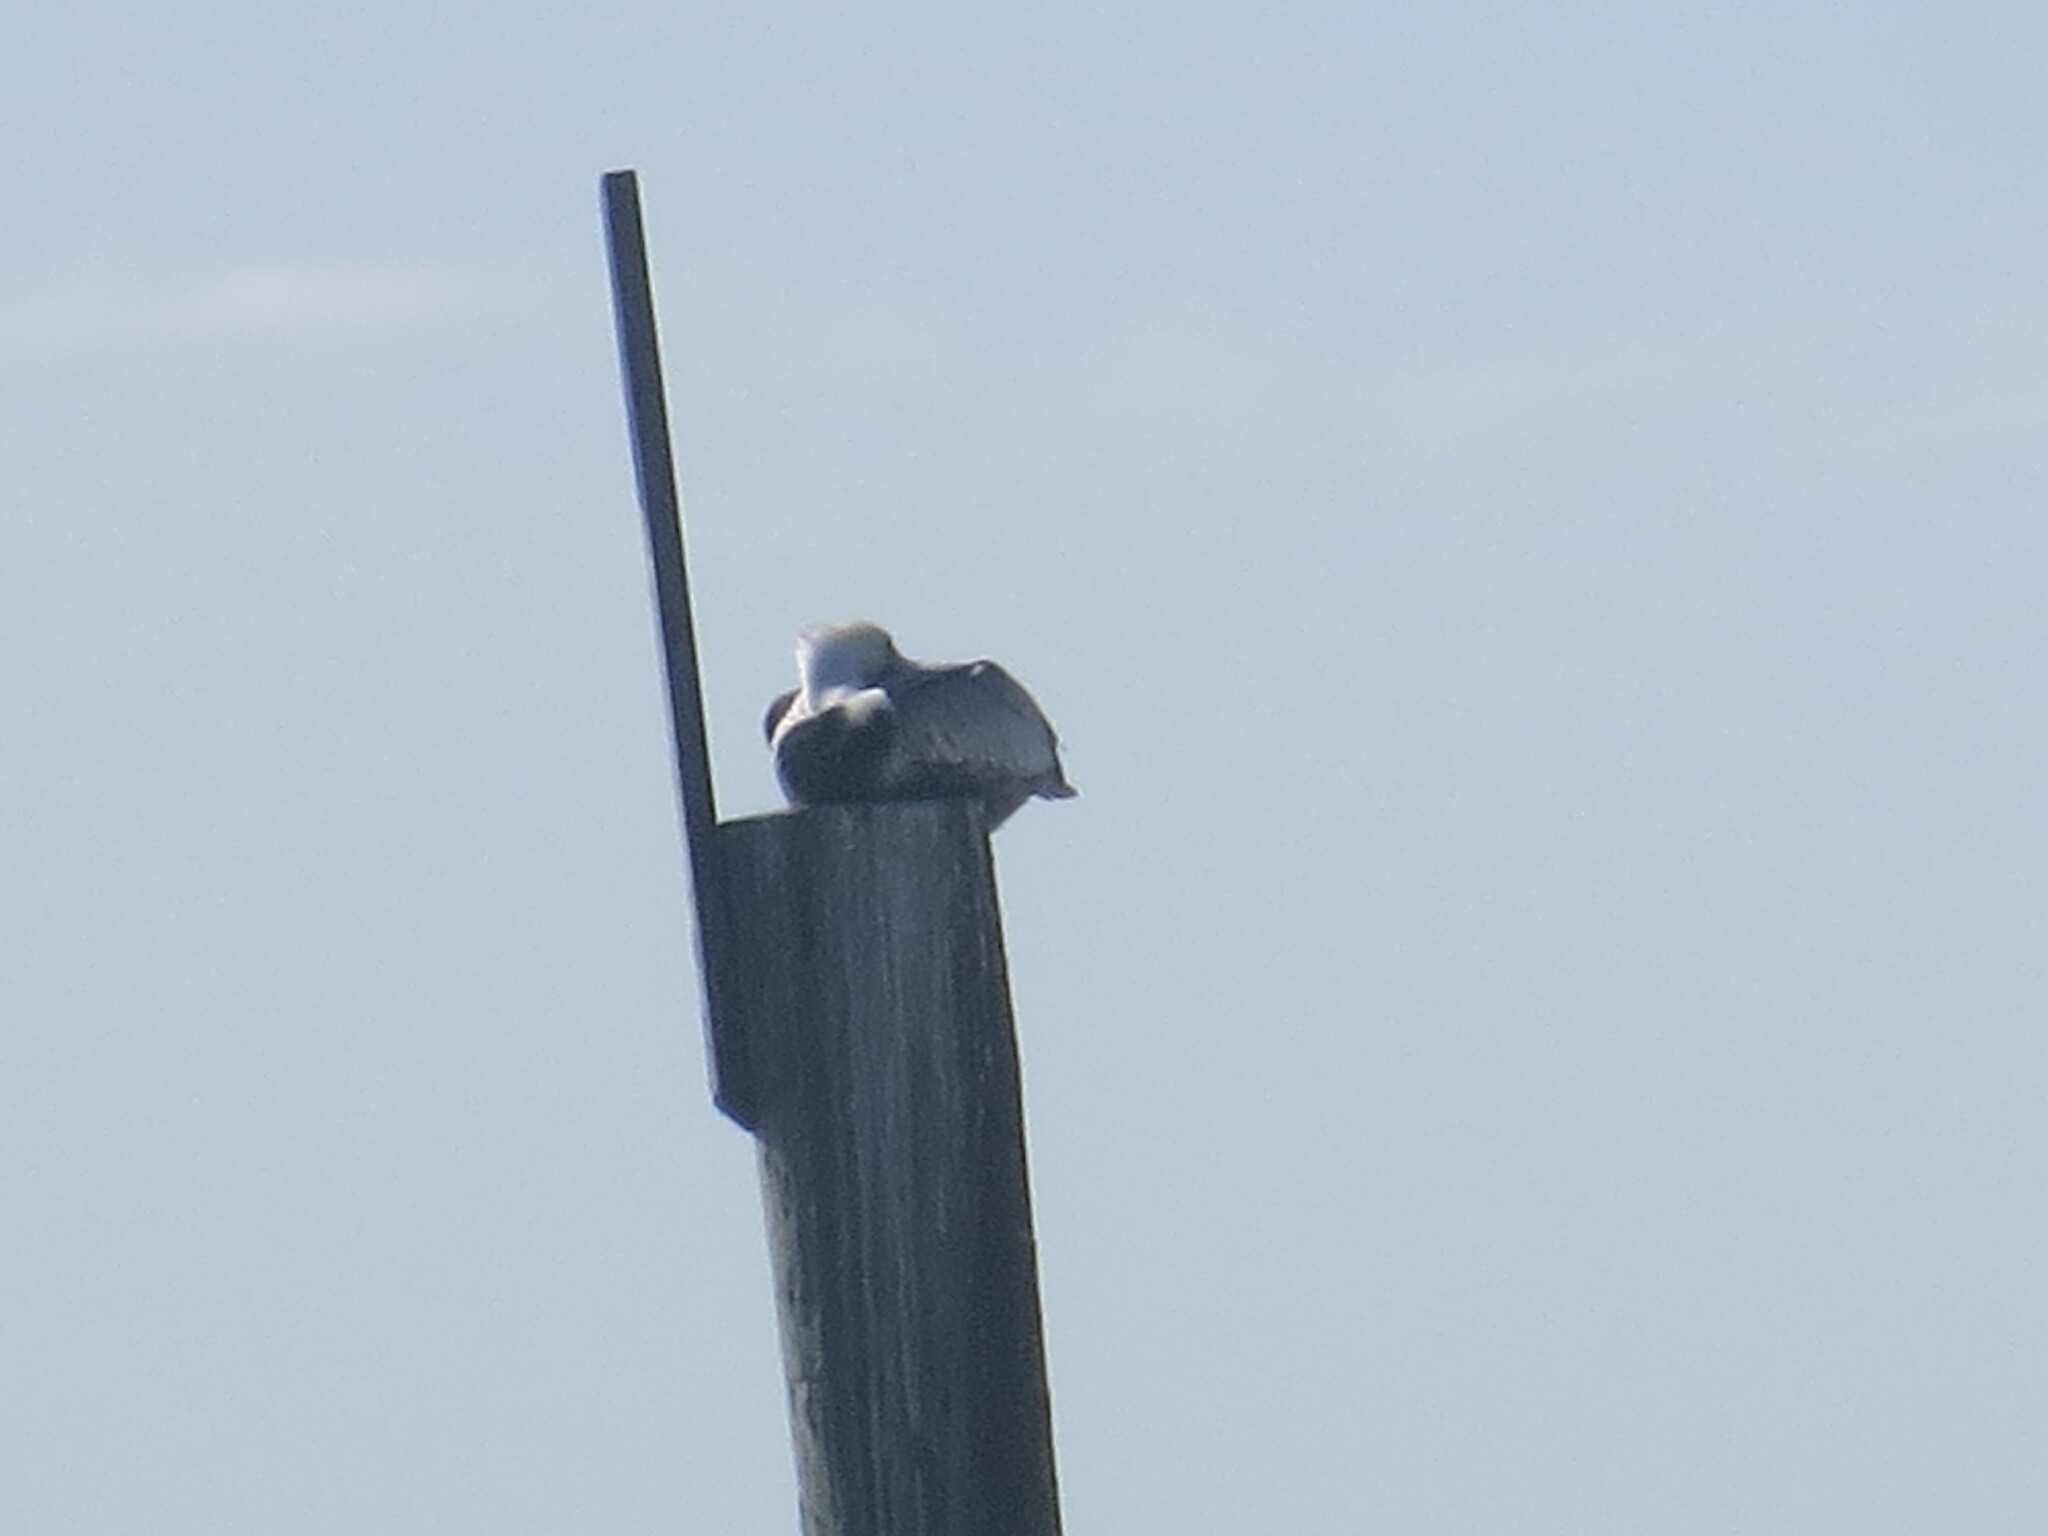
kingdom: Animalia
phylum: Chordata
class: Aves
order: Pelecaniformes
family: Pelecanidae
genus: Pelecanus
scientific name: Pelecanus occidentalis
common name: Brown pelican
